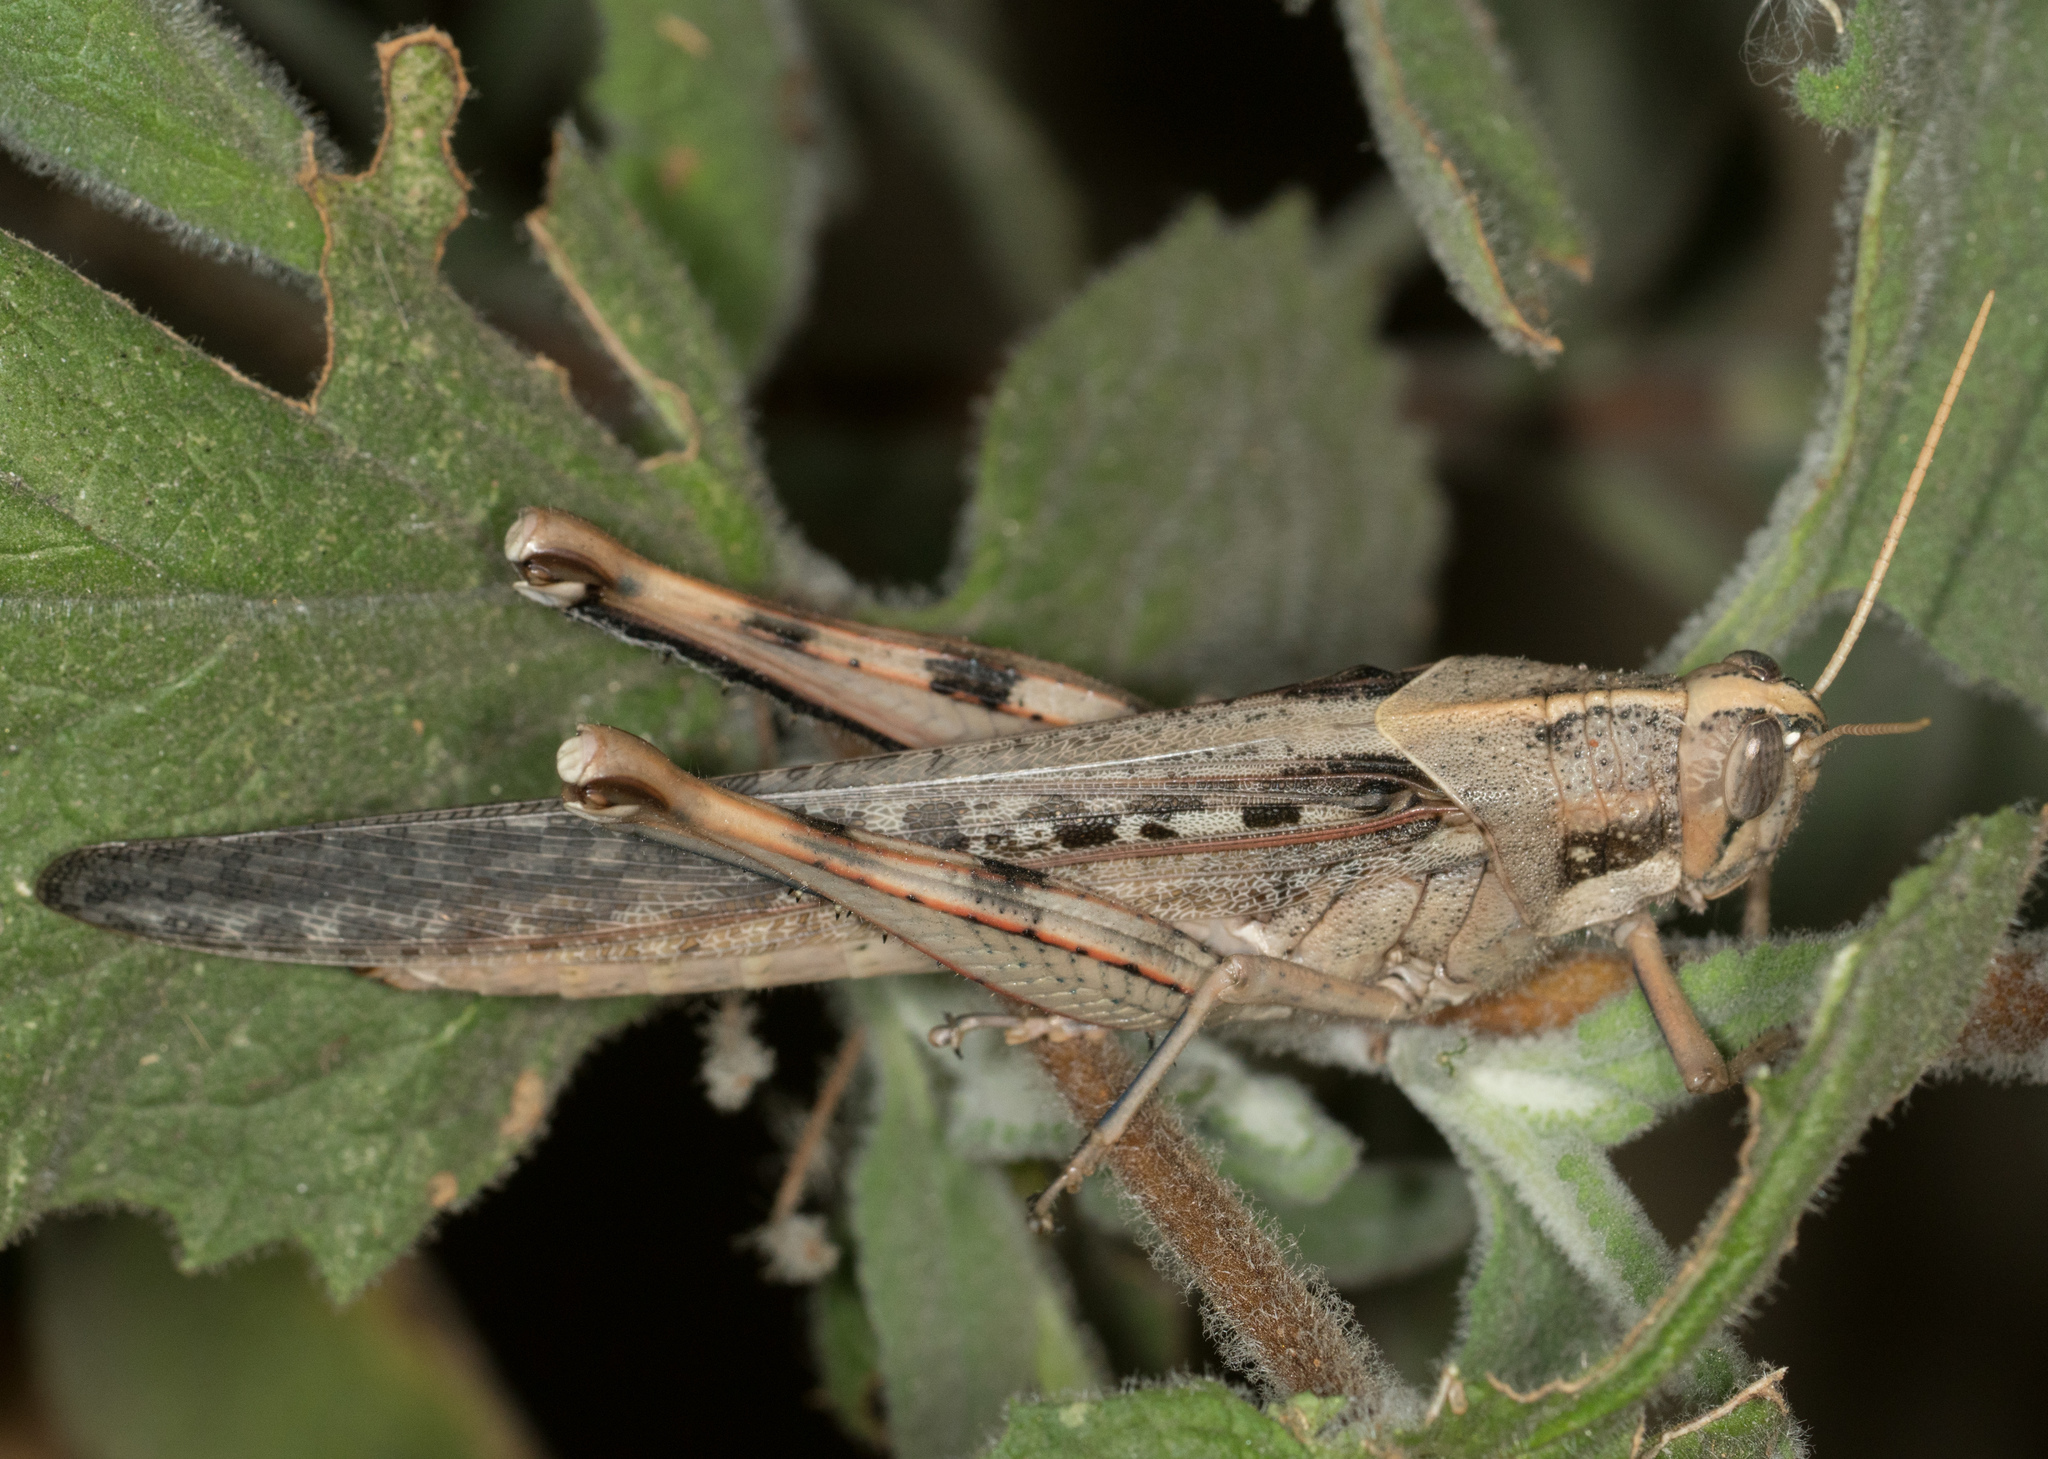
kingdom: Animalia
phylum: Arthropoda
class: Insecta
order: Orthoptera
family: Acrididae
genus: Schistocerca
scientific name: Schistocerca nitens
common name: Vagrant grasshopper
